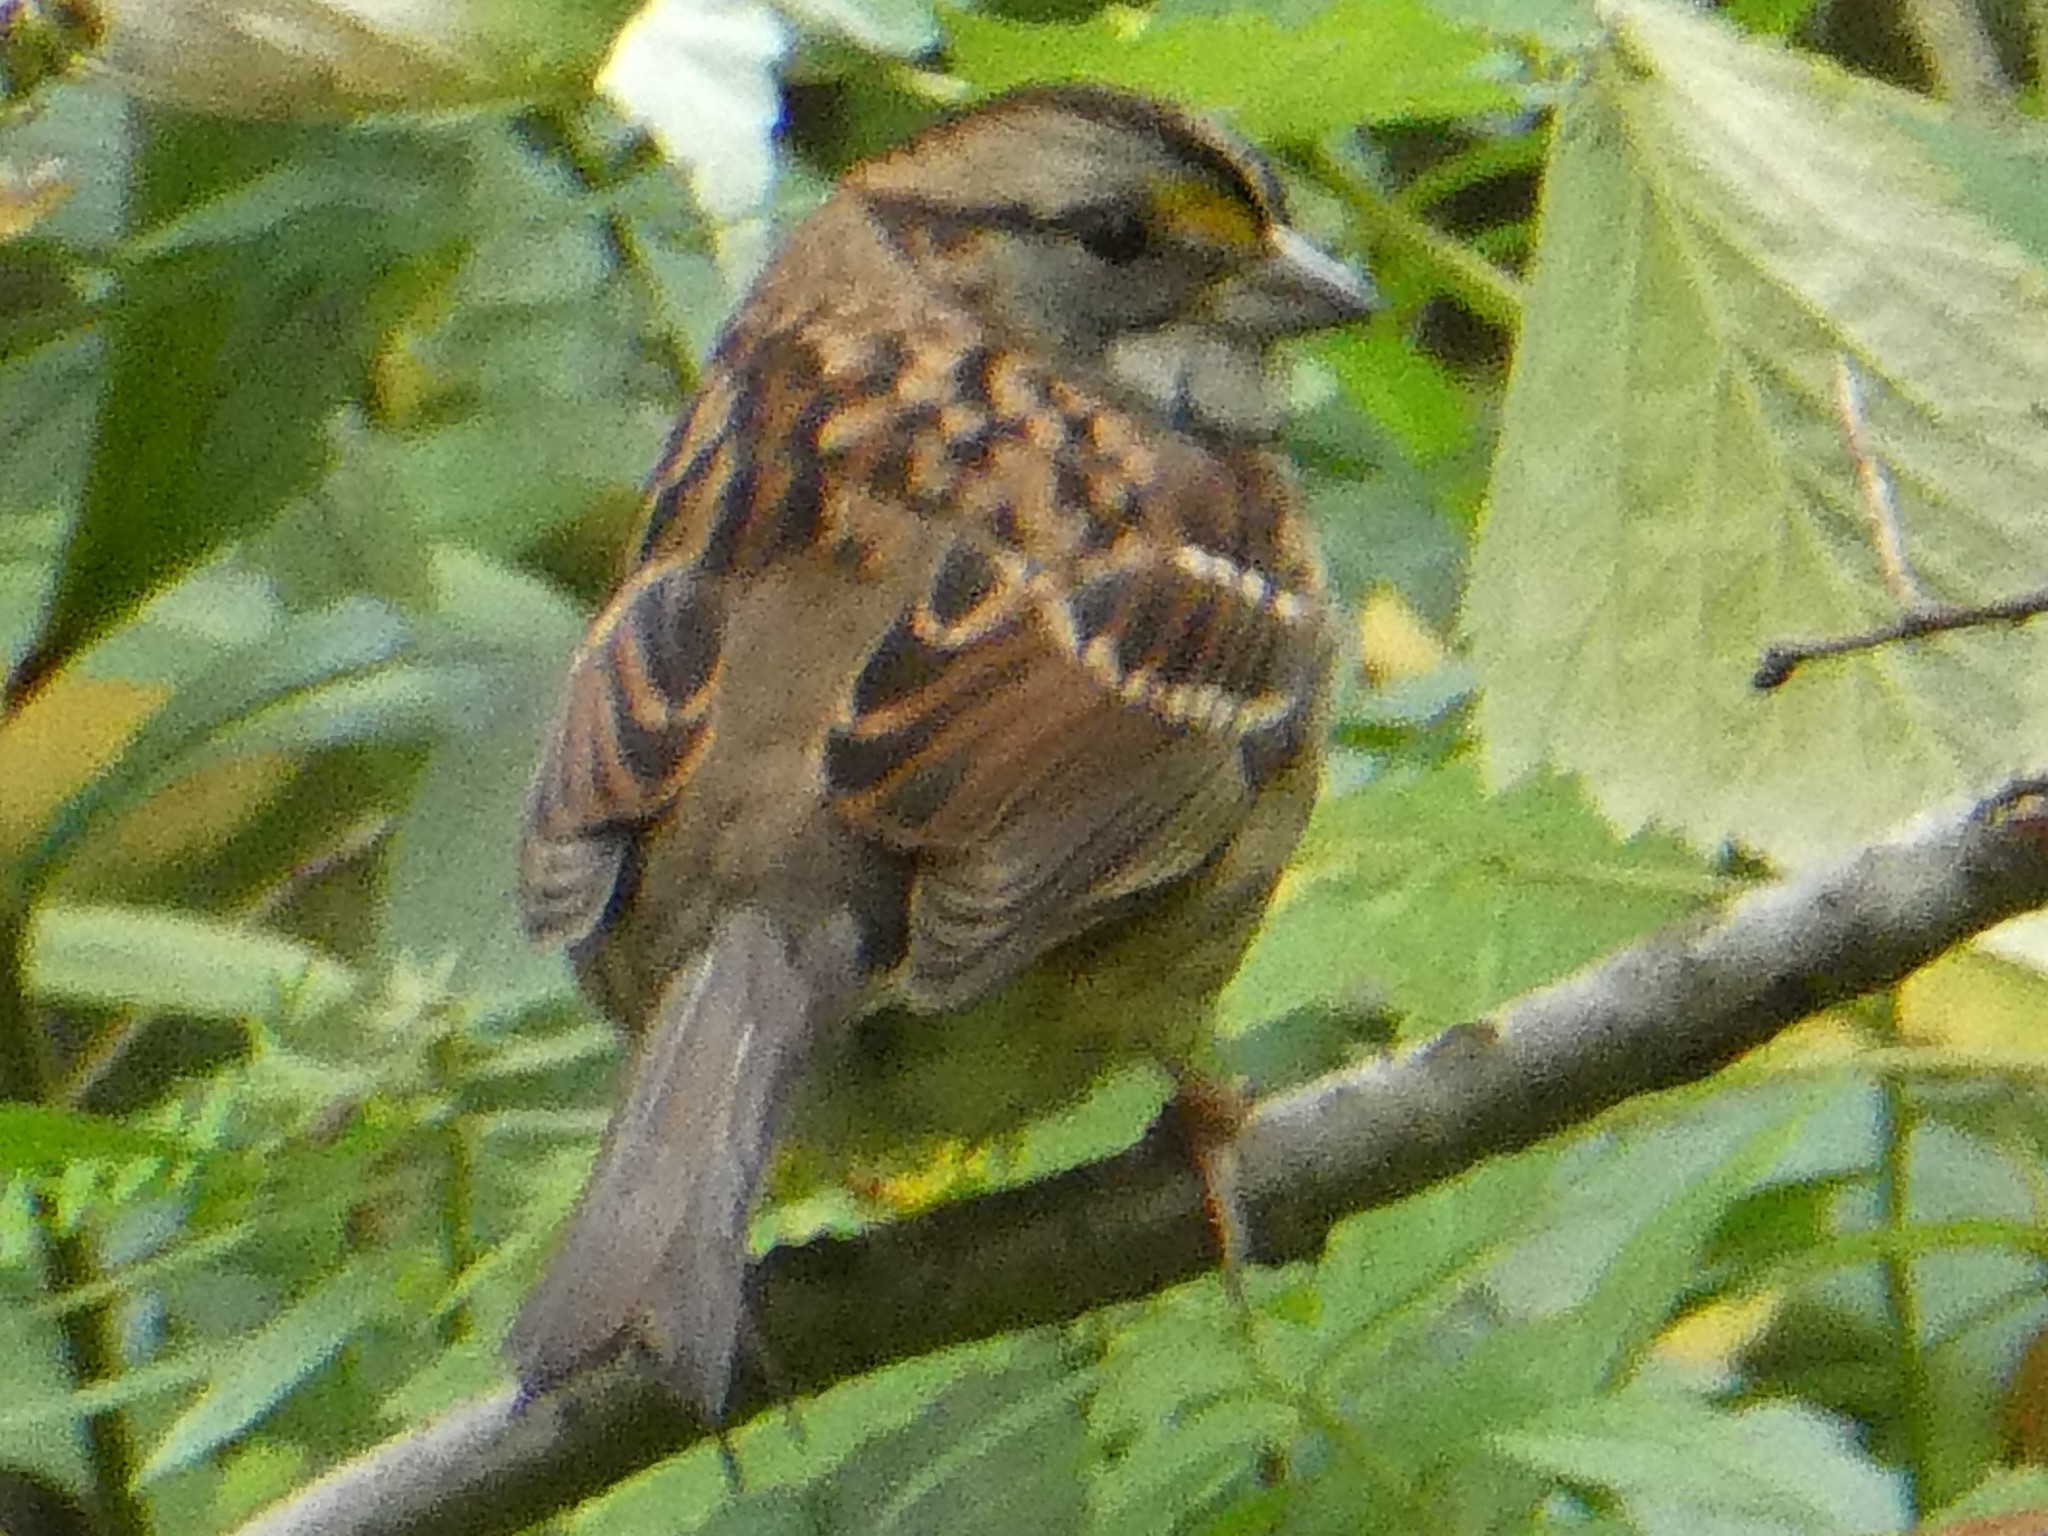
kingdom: Animalia
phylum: Chordata
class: Aves
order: Passeriformes
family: Passerellidae
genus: Zonotrichia
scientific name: Zonotrichia albicollis
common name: White-throated sparrow
